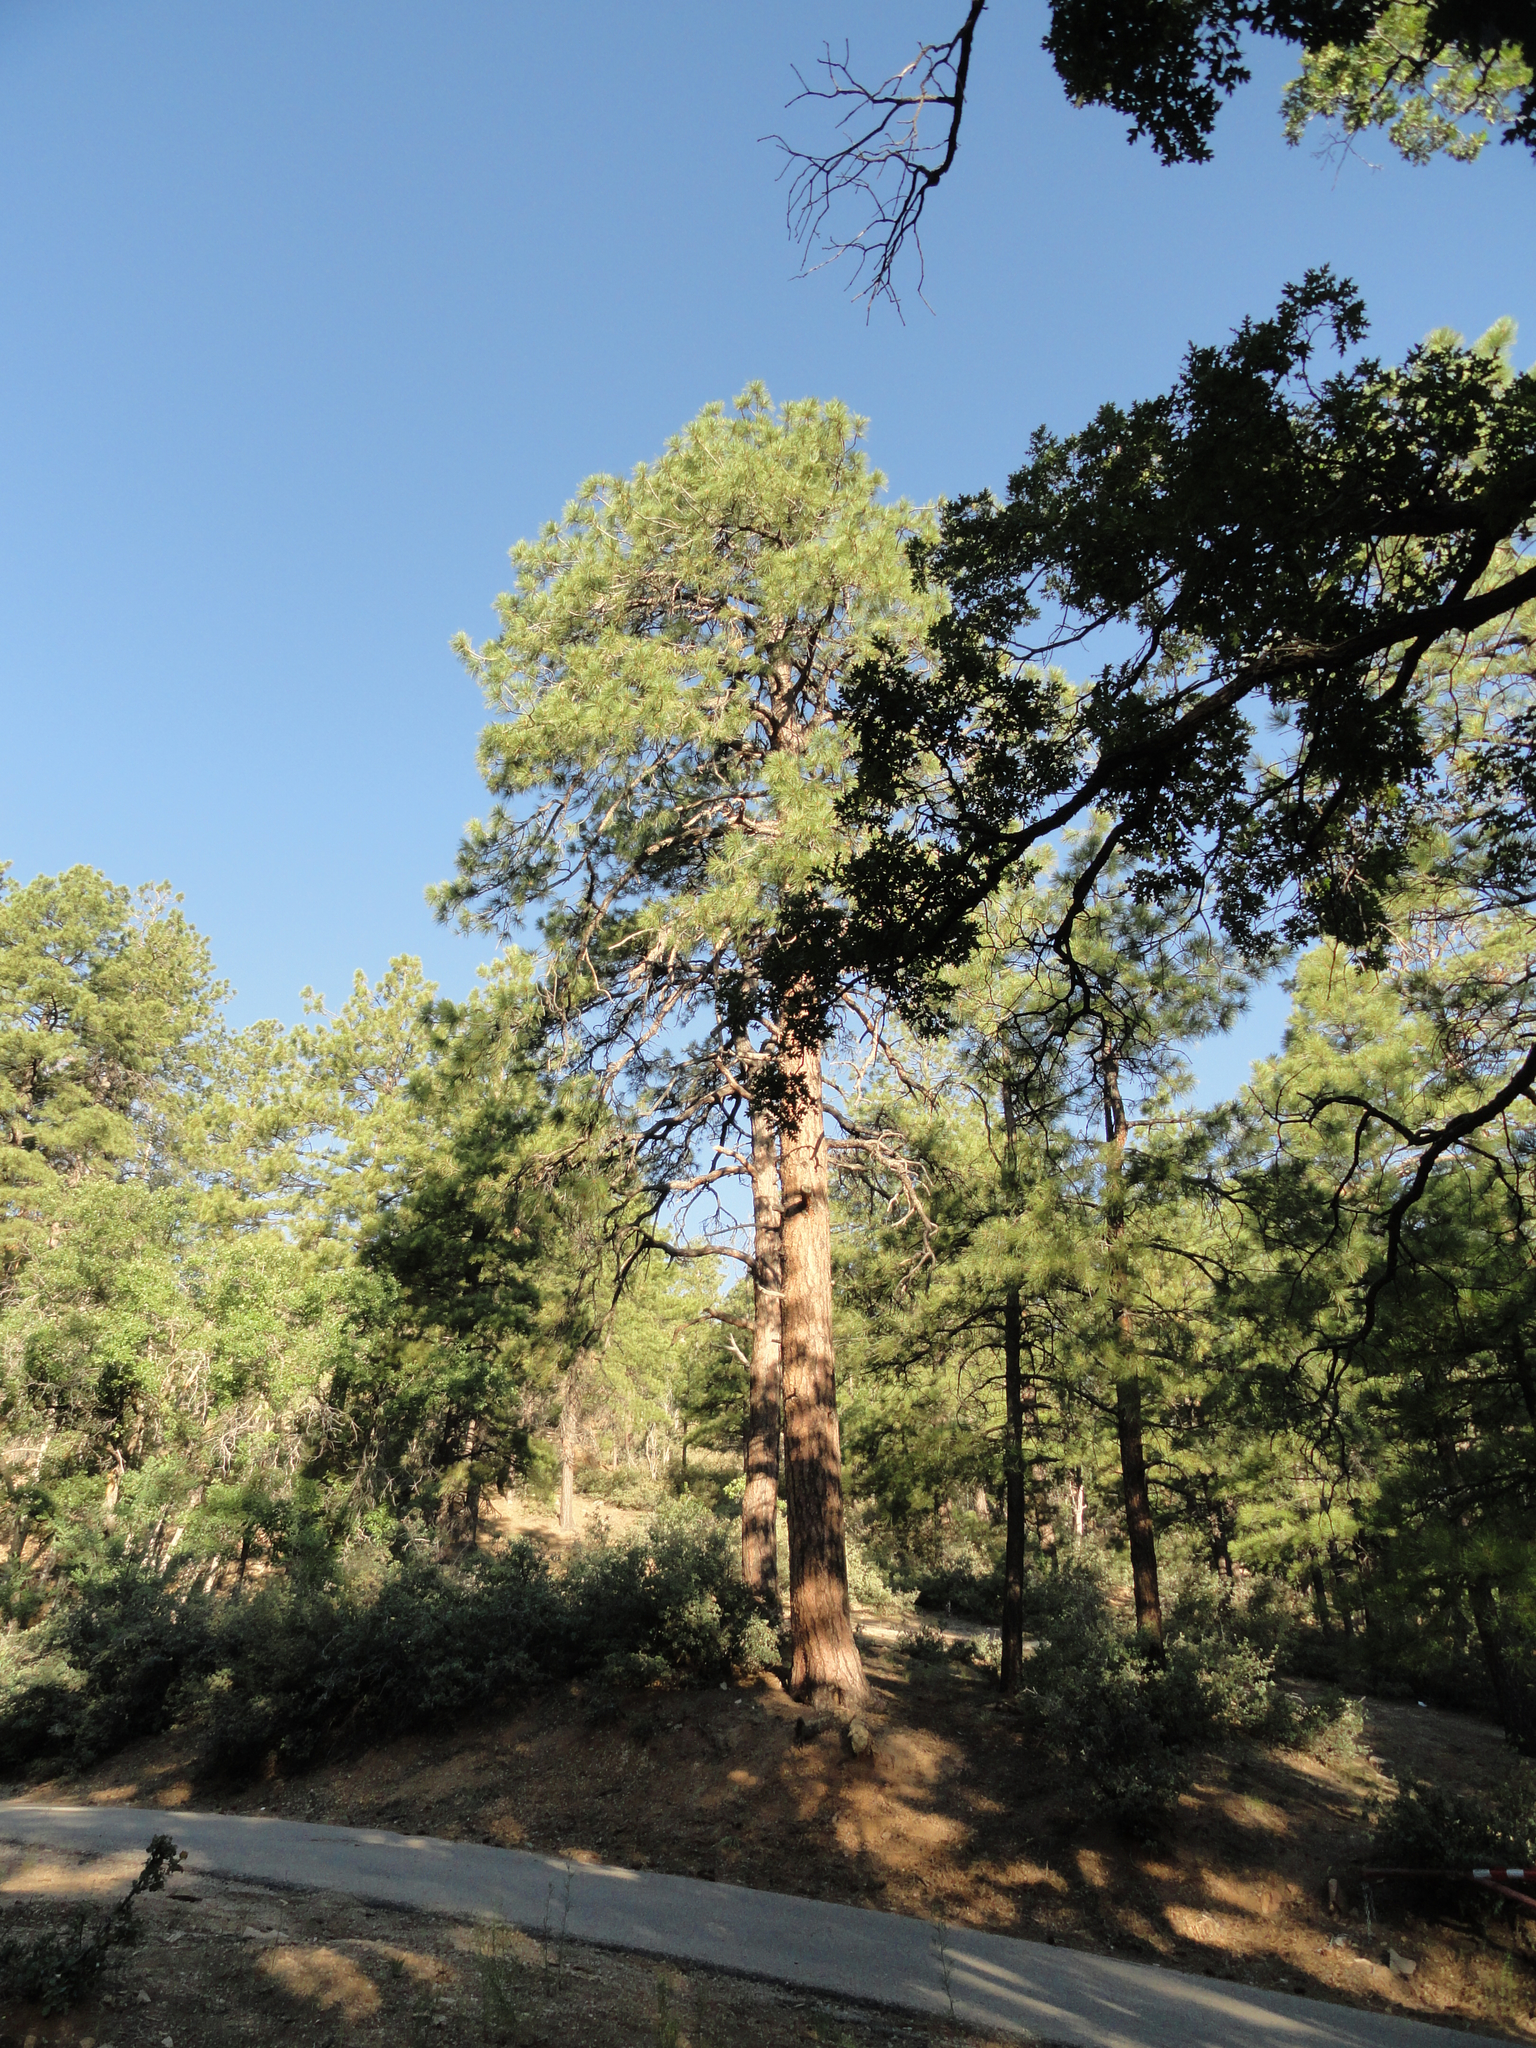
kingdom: Plantae
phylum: Tracheophyta
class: Pinopsida
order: Pinales
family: Pinaceae
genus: Pinus
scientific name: Pinus ponderosa
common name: Western yellow-pine
